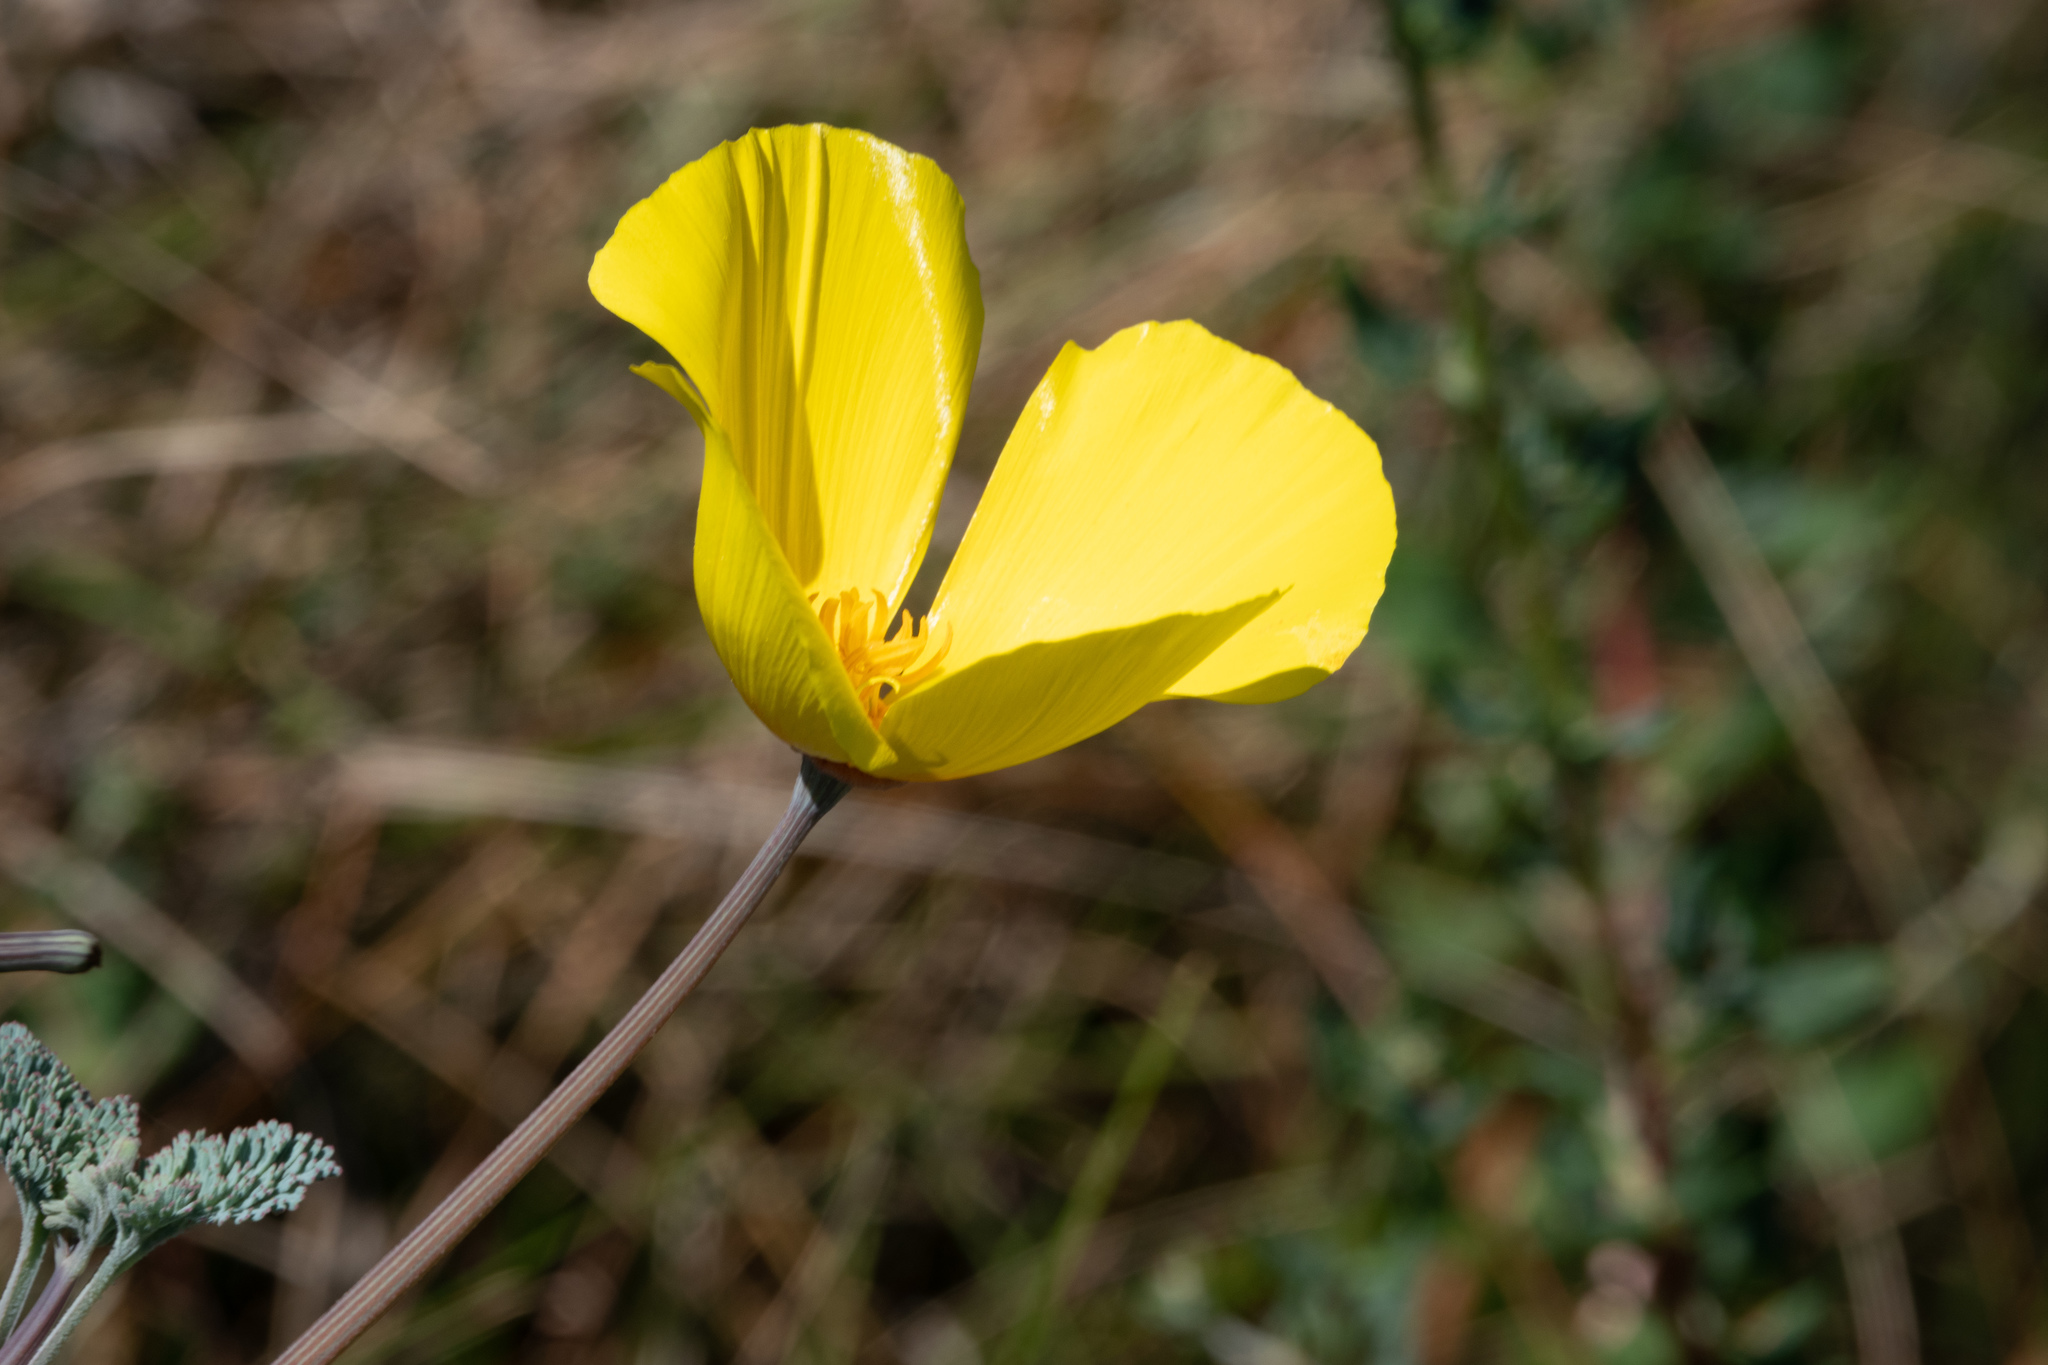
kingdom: Plantae
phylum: Tracheophyta
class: Magnoliopsida
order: Ranunculales
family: Papaveraceae
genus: Eschscholzia
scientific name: Eschscholzia californica
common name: California poppy
